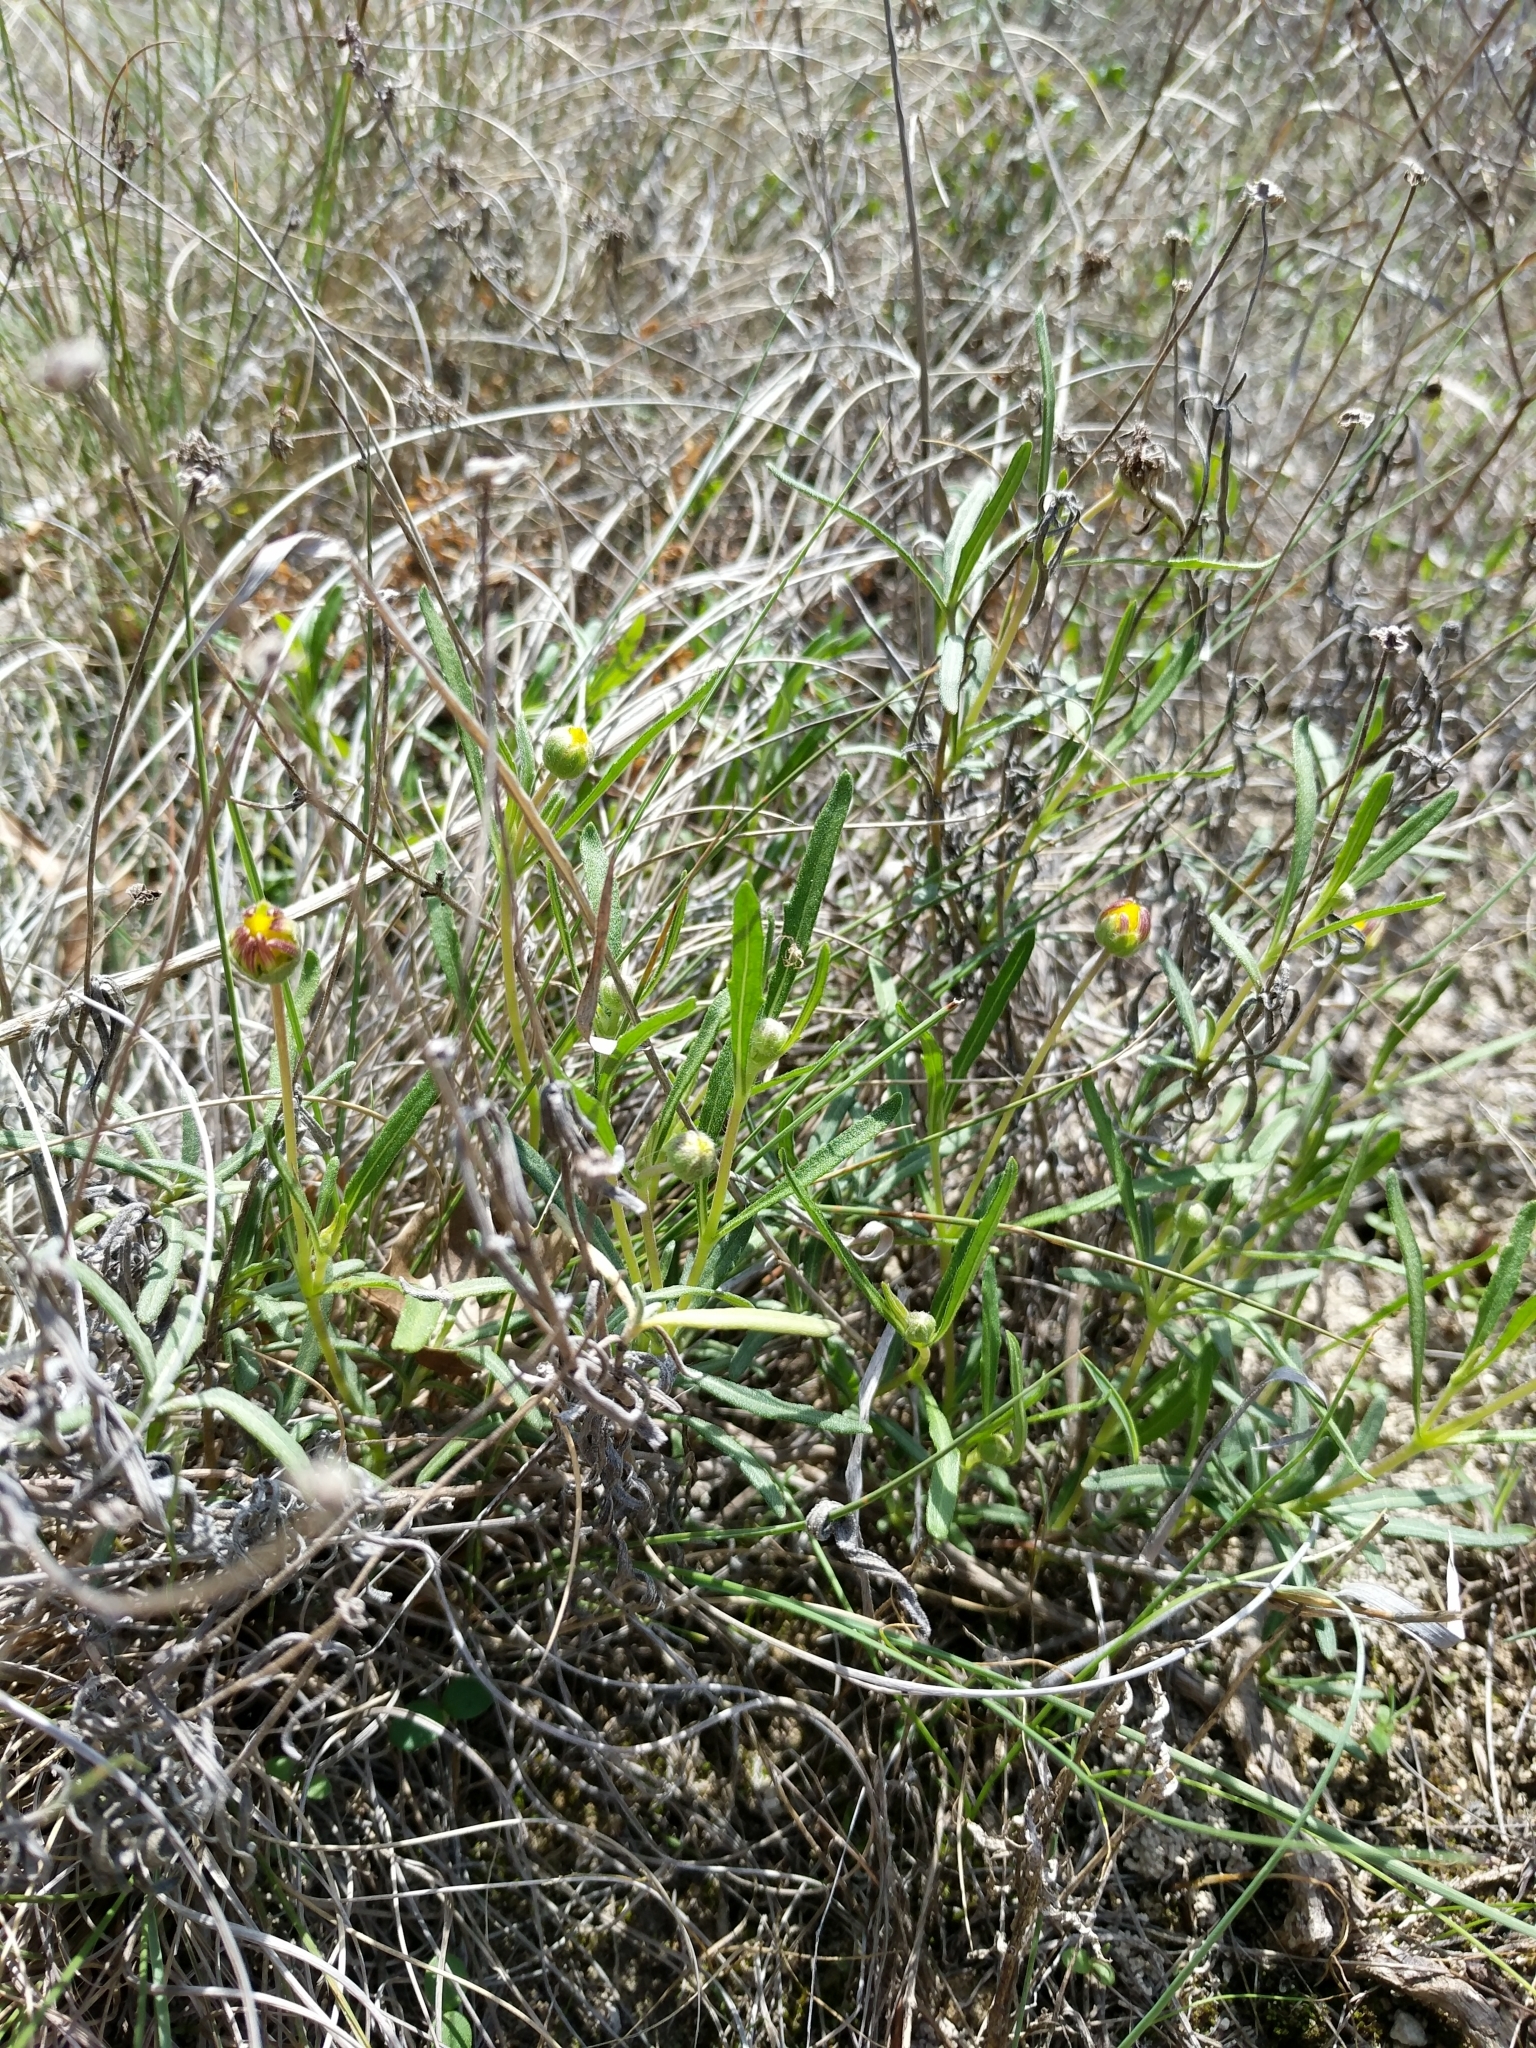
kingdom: Plantae
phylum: Tracheophyta
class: Magnoliopsida
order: Asterales
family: Asteraceae
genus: Melampodium
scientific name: Melampodium leucanthum
